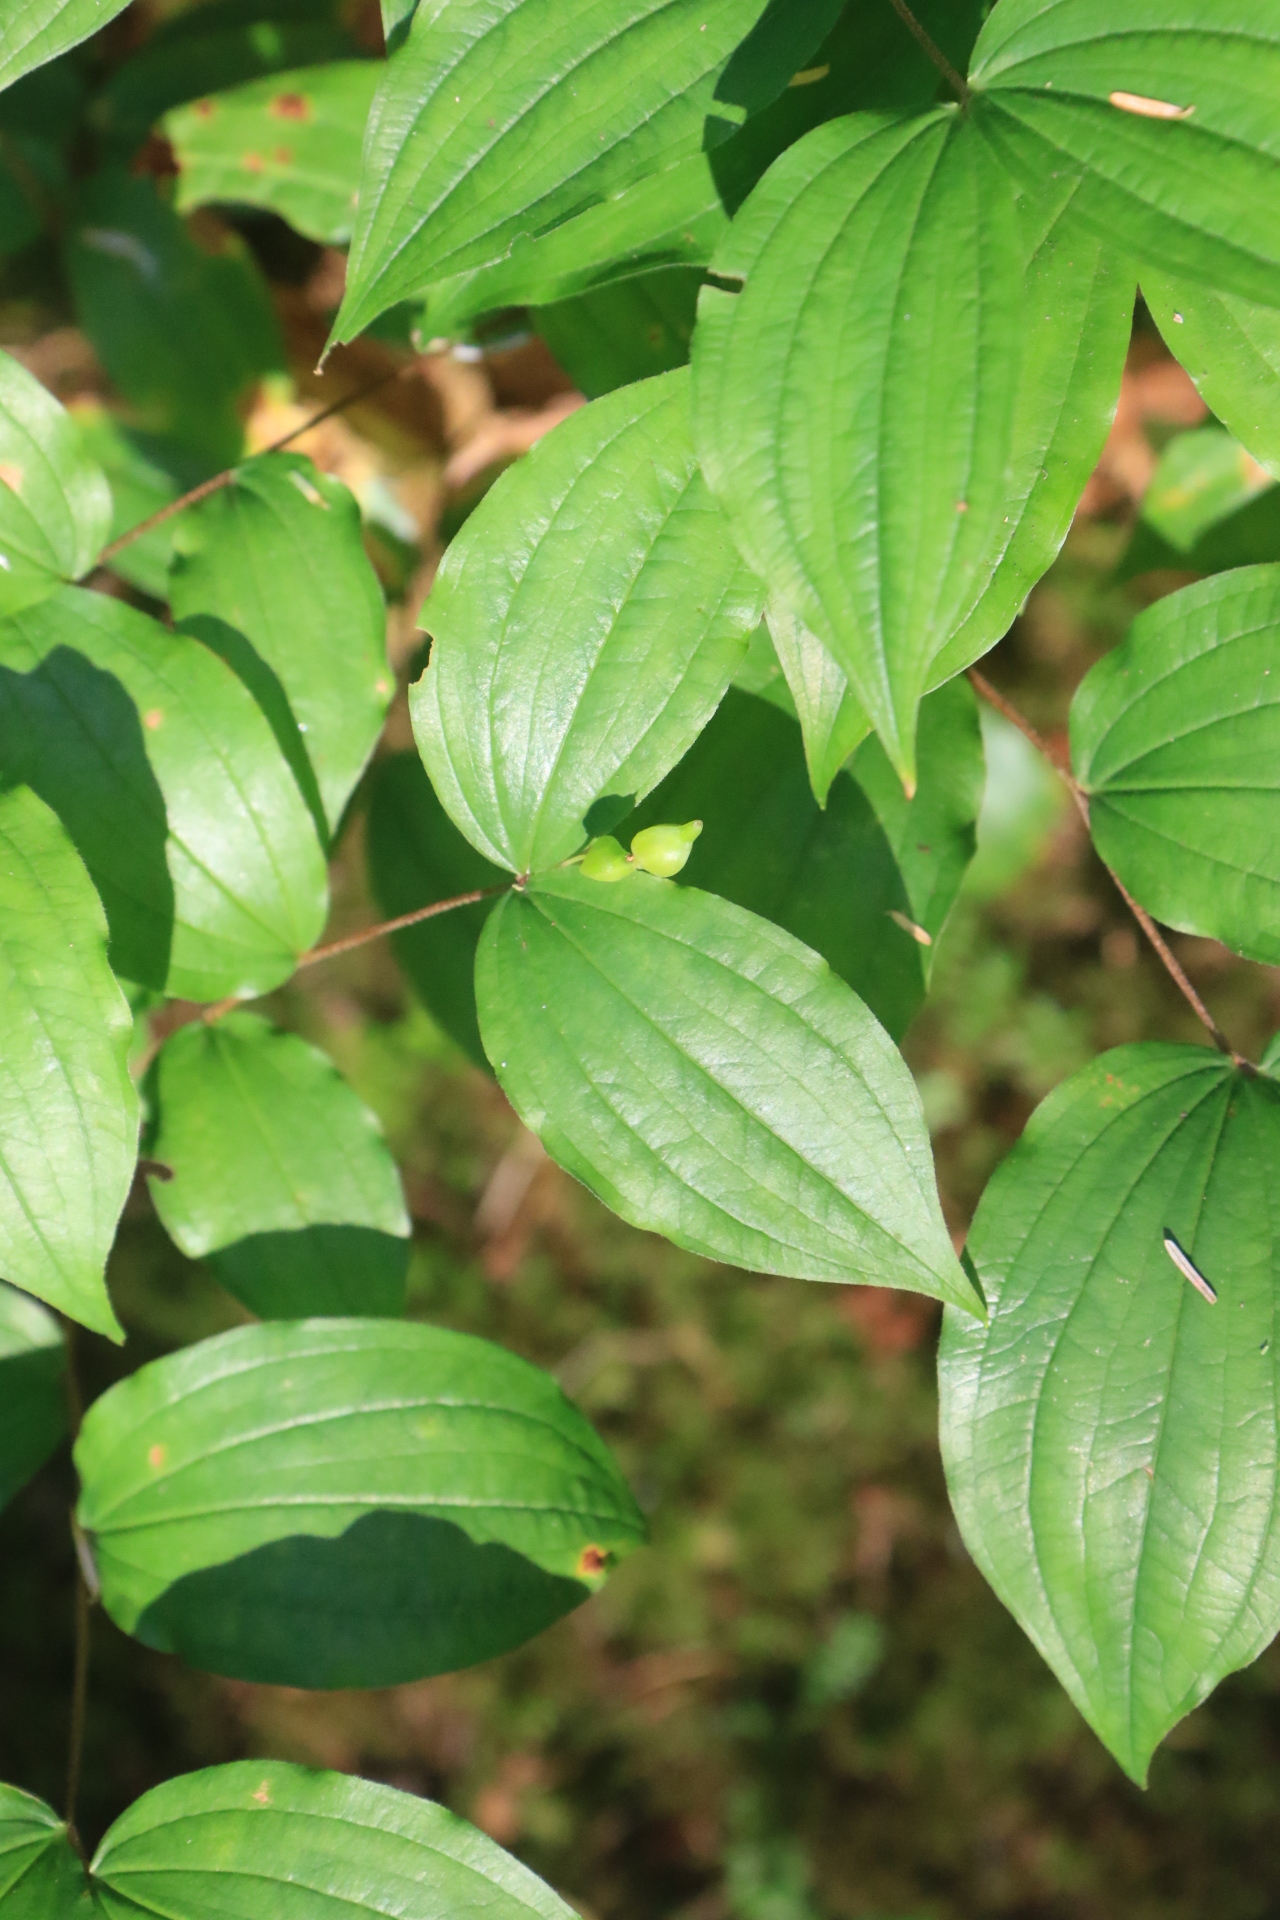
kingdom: Plantae
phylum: Tracheophyta
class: Liliopsida
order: Liliales
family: Liliaceae
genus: Prosartes
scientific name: Prosartes smithii
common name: Fairy-lantern
